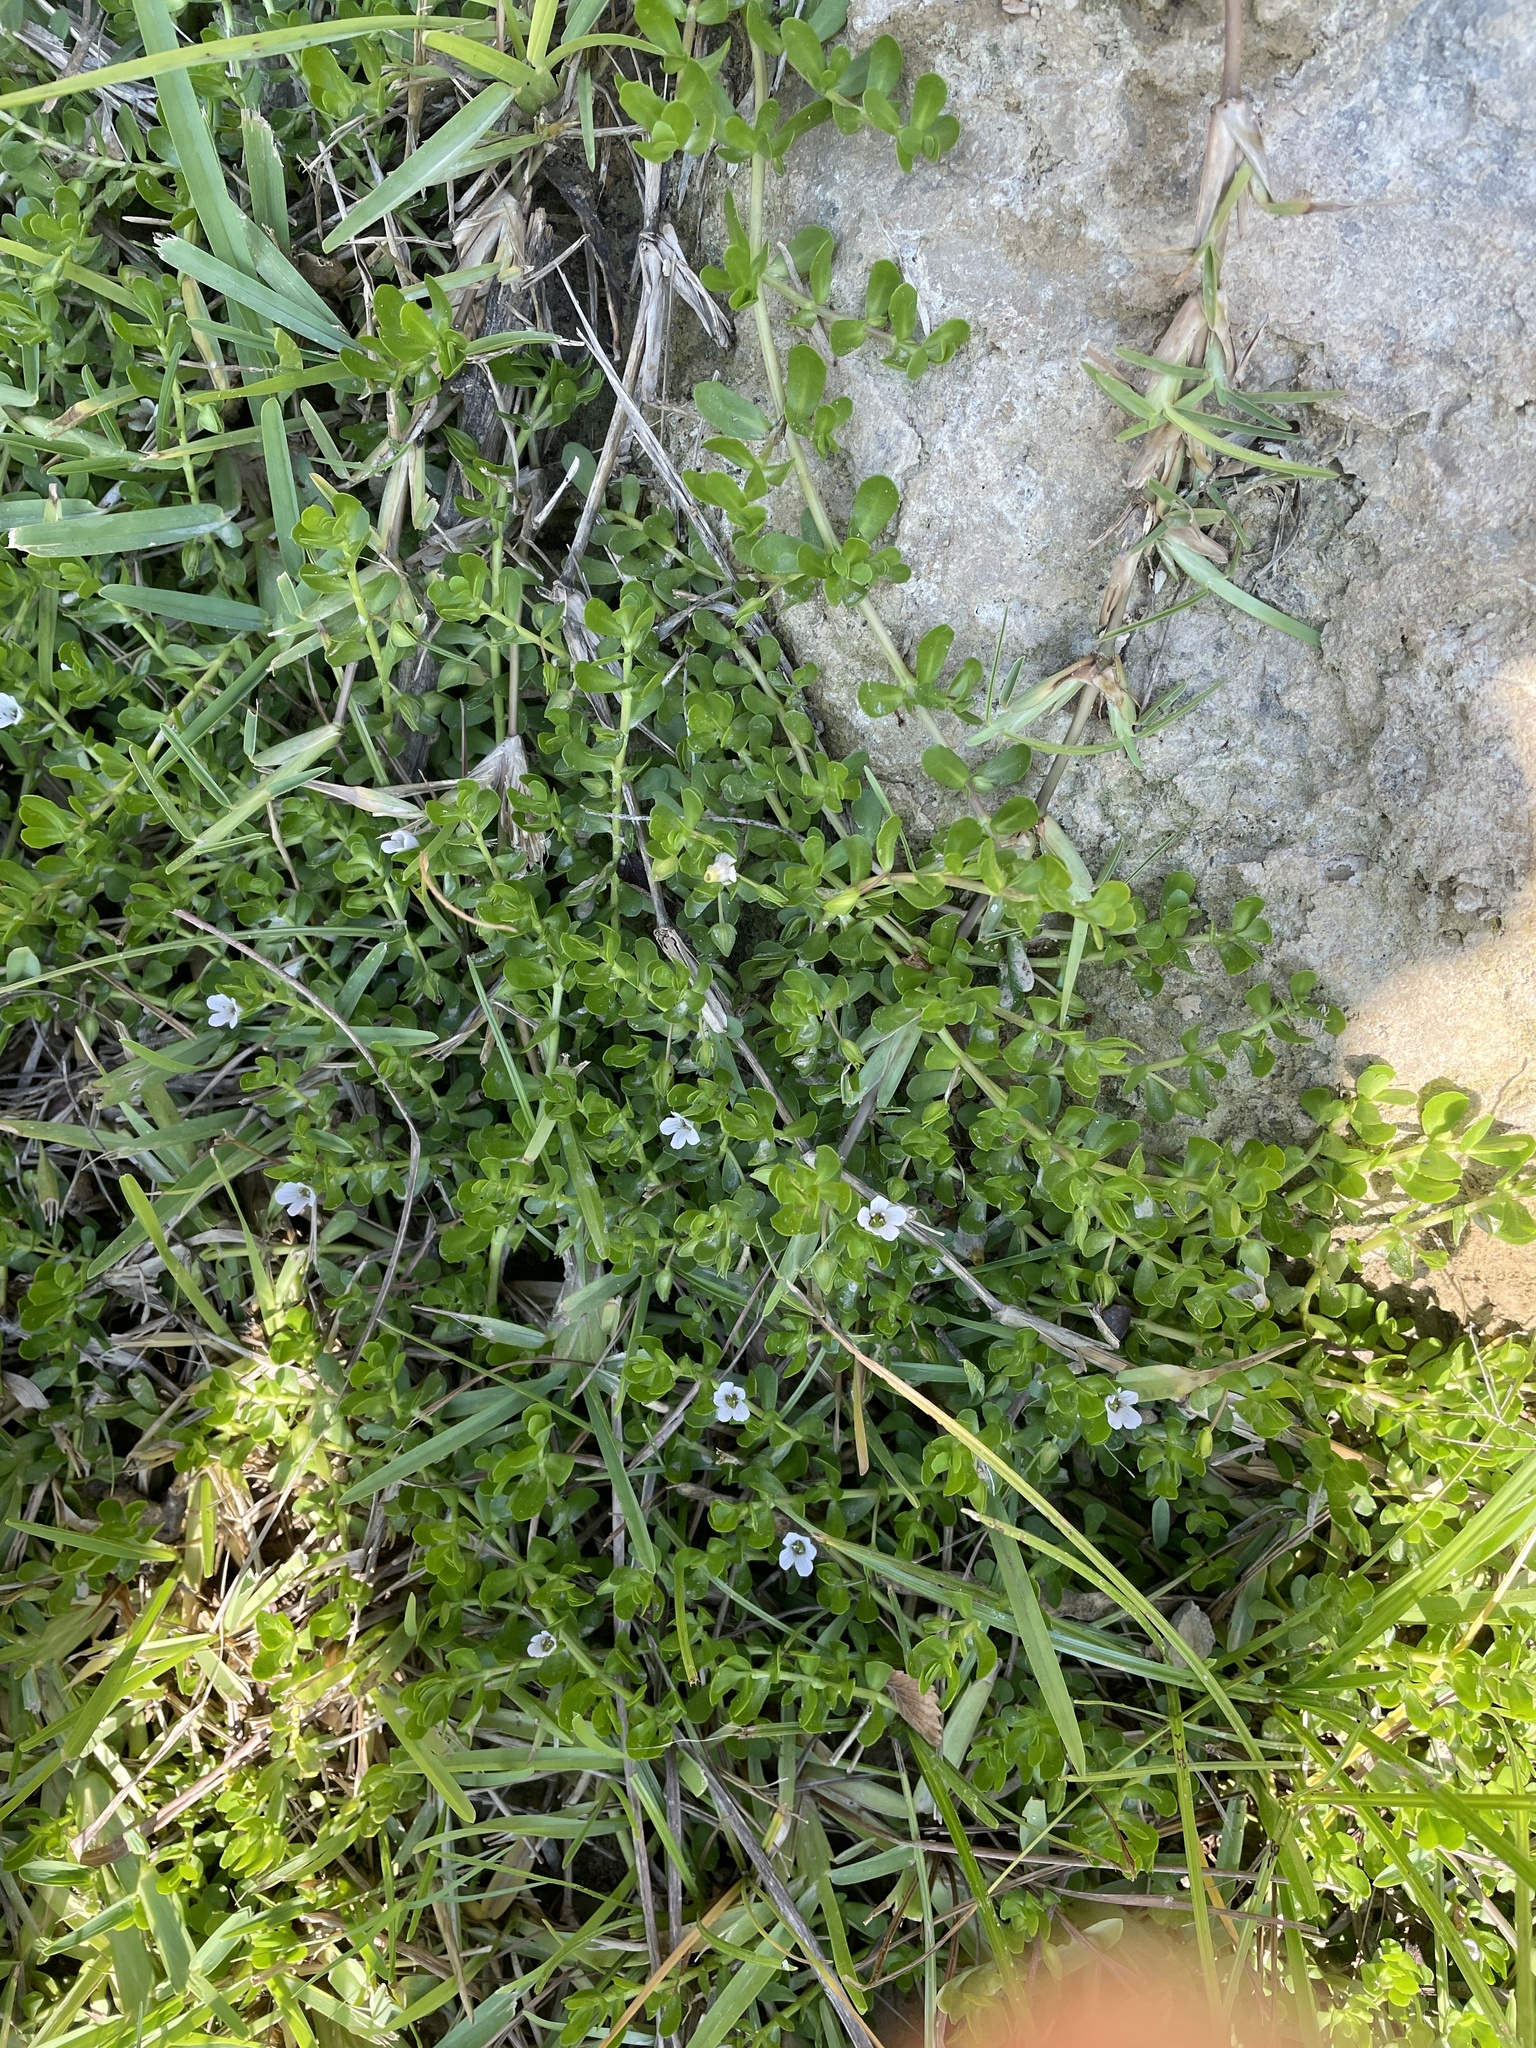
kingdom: Plantae
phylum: Tracheophyta
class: Magnoliopsida
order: Lamiales
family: Plantaginaceae
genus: Bacopa
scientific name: Bacopa monnieri
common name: Indian-pennywort
